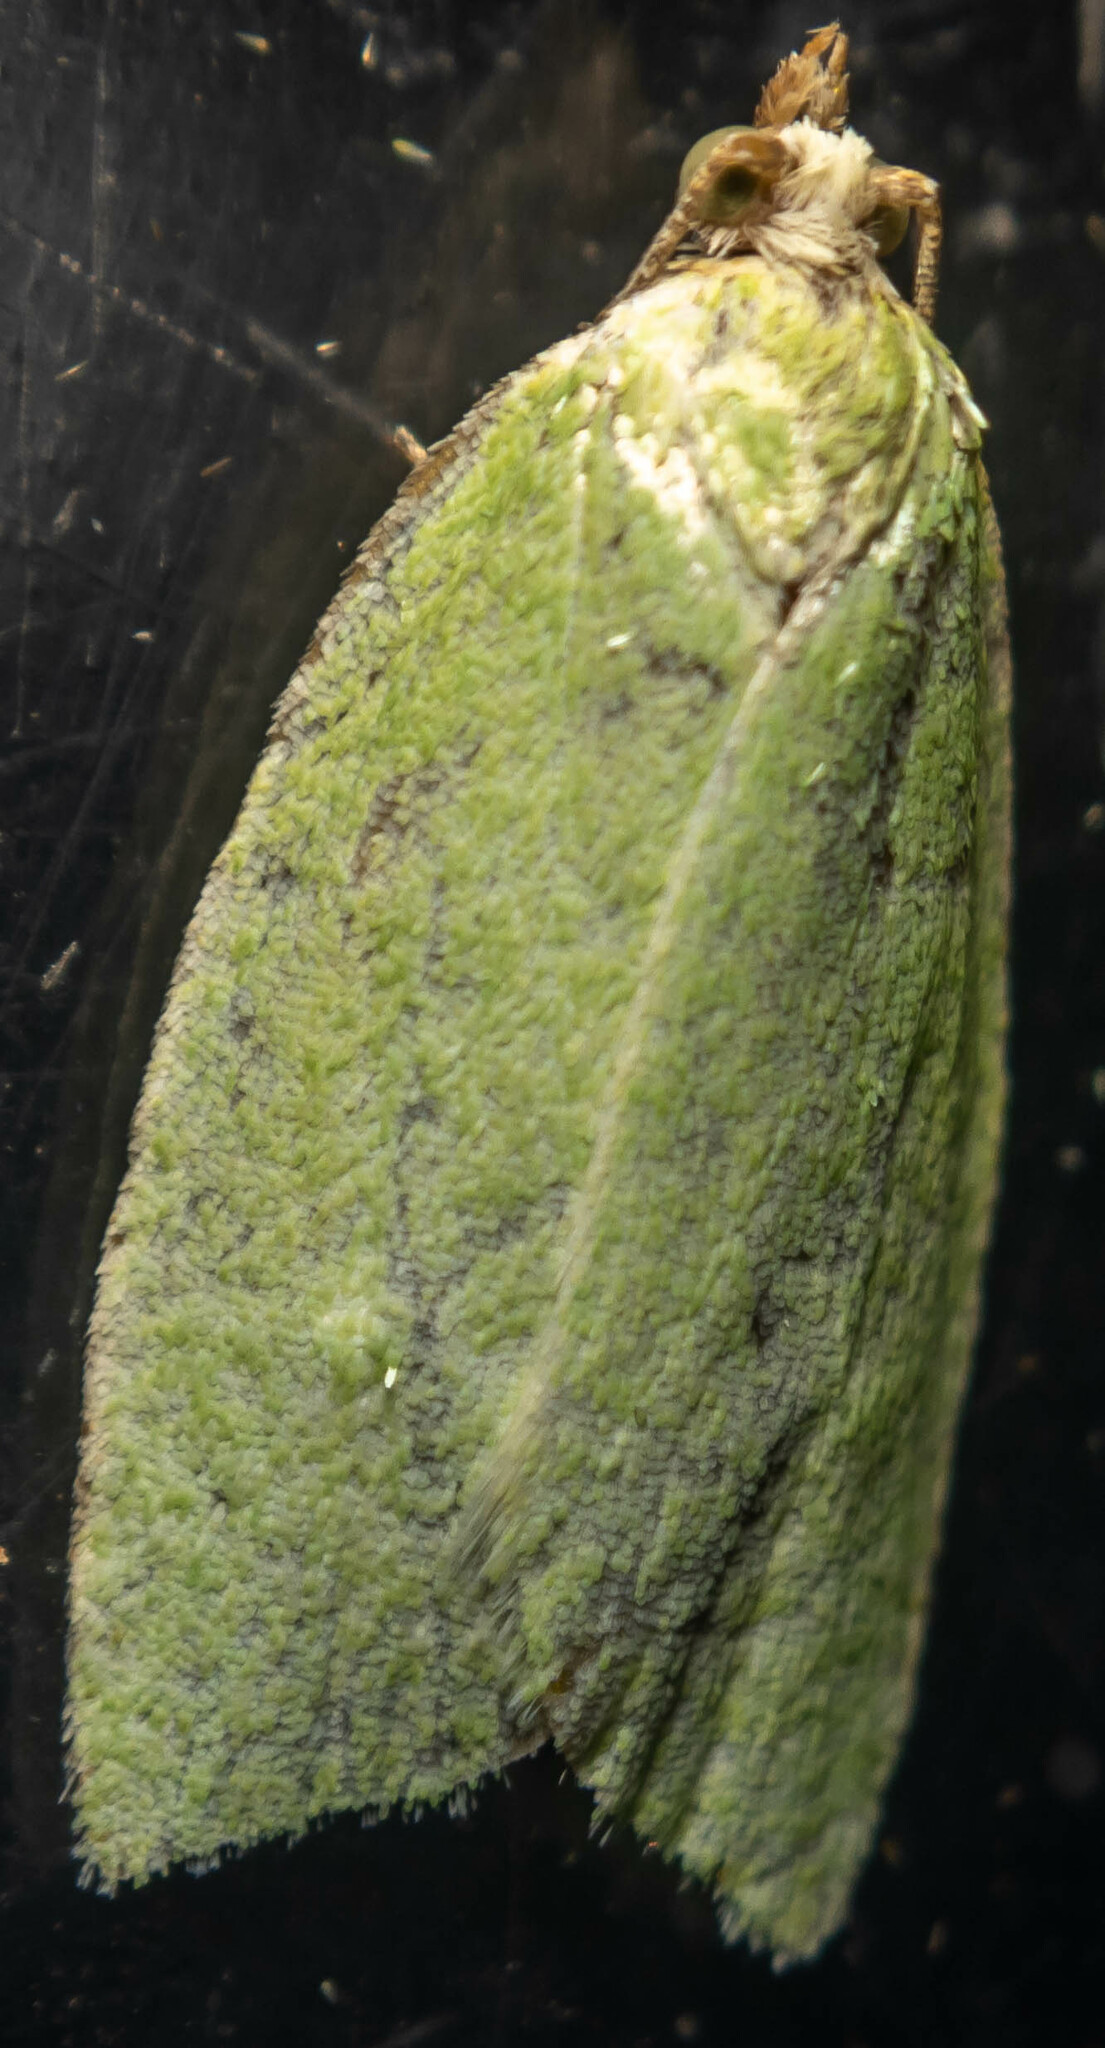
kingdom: Animalia
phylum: Arthropoda
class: Insecta
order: Lepidoptera
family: Tortricidae
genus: Tortrix
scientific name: Tortrix viridana
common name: Green oak tortrix
